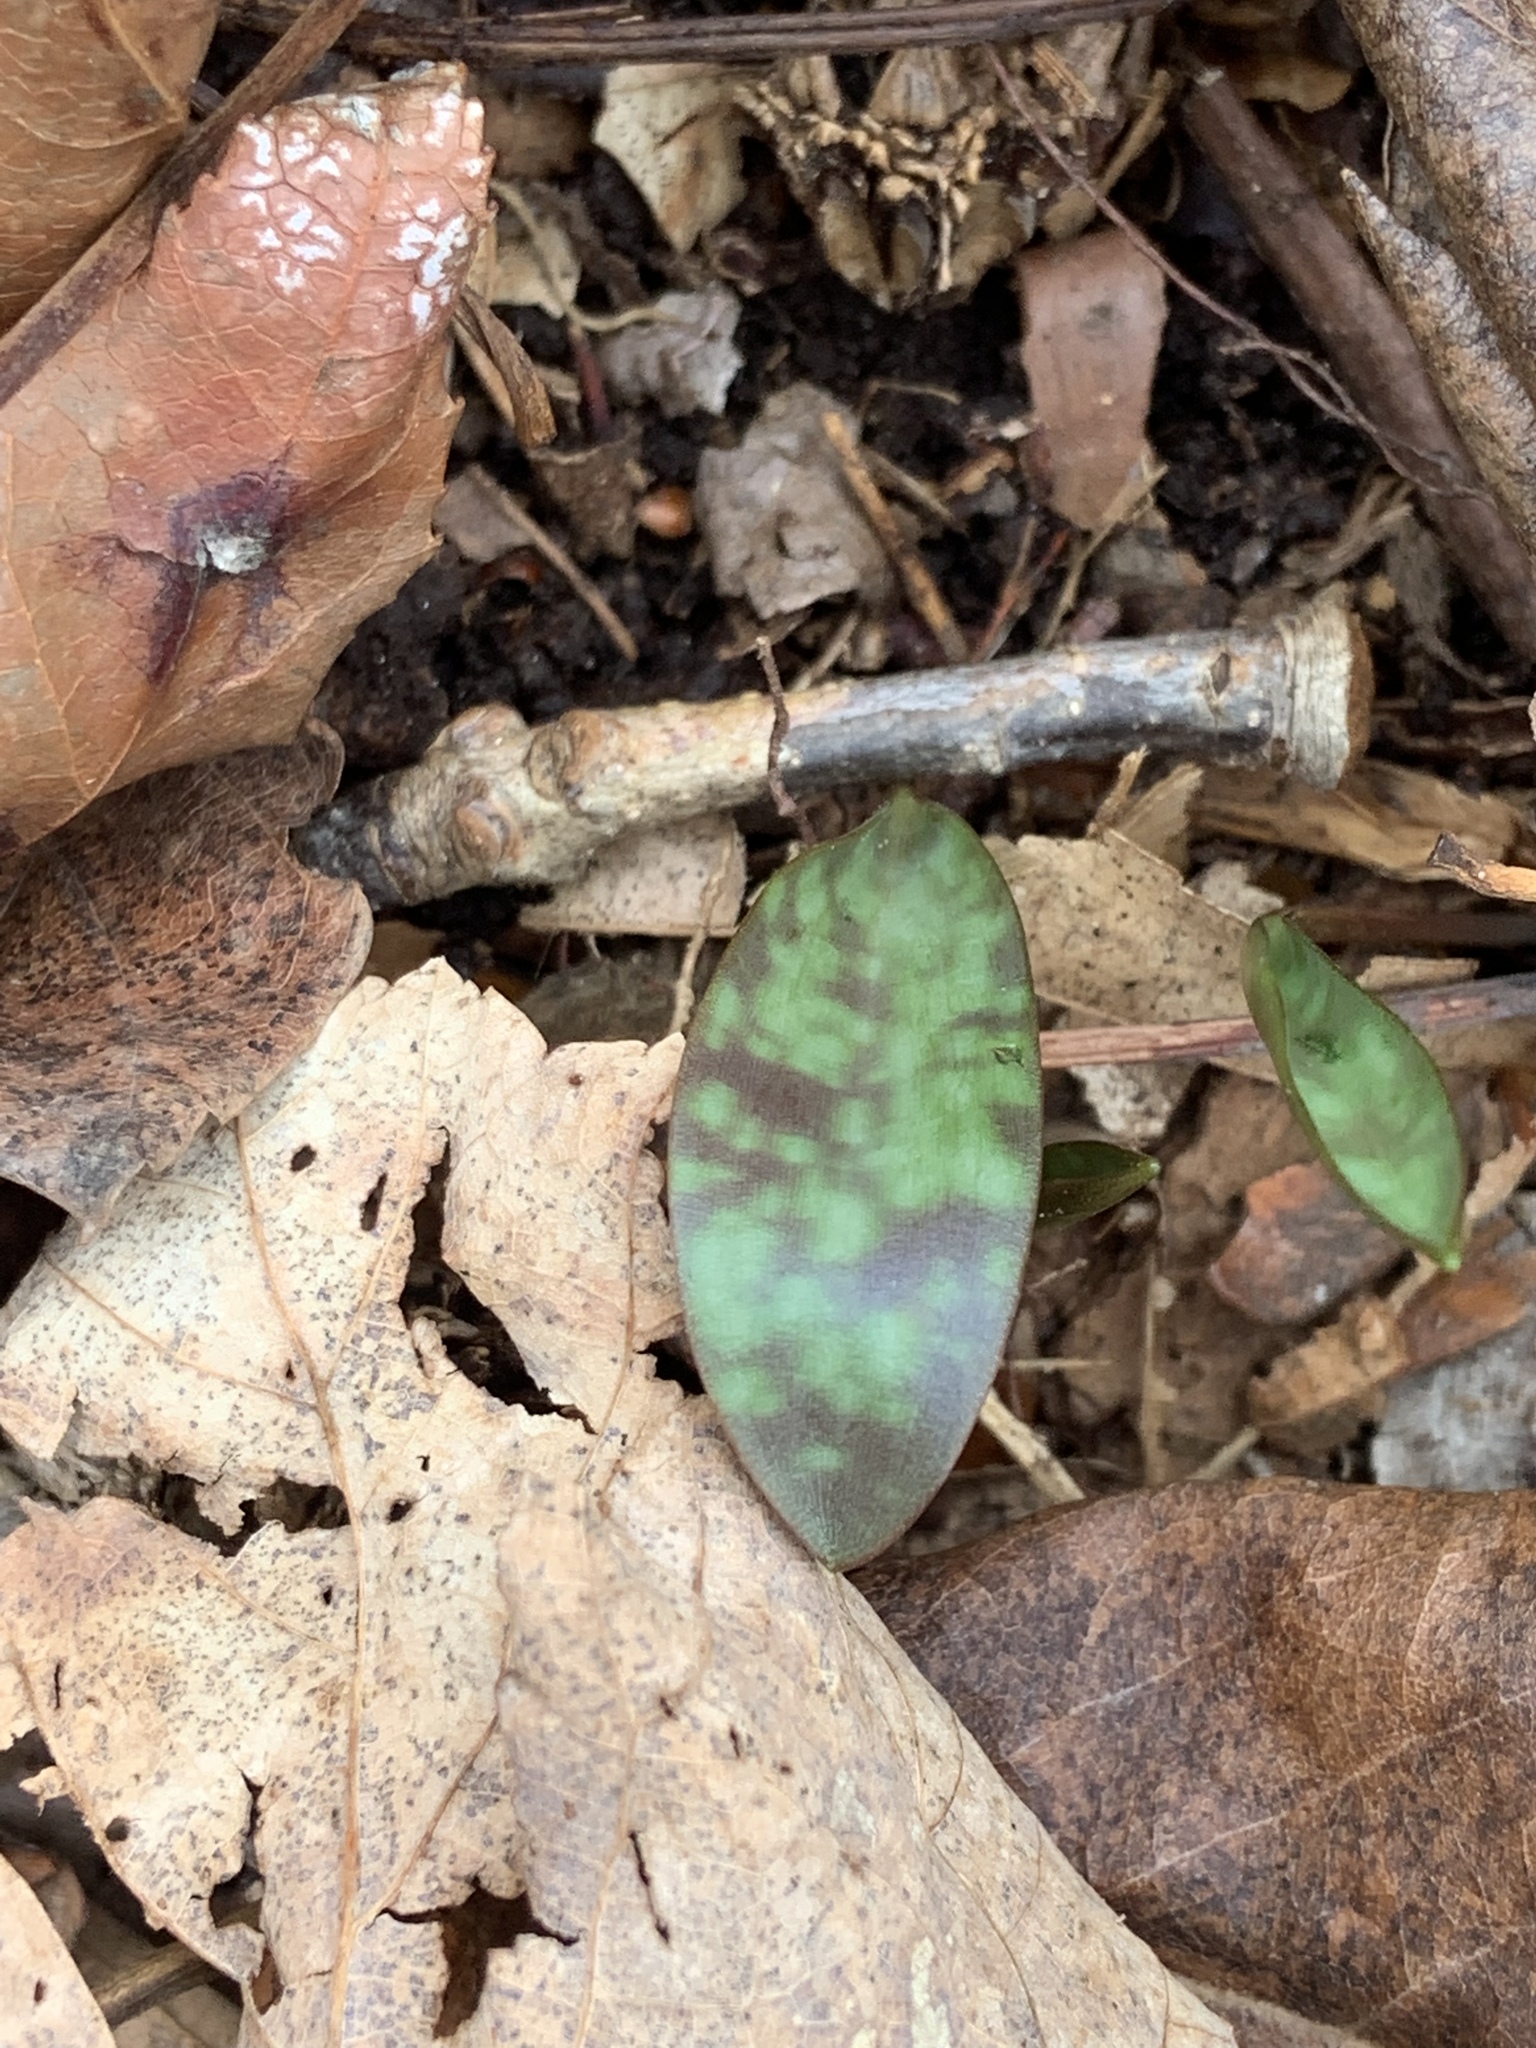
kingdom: Plantae
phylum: Tracheophyta
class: Liliopsida
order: Liliales
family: Liliaceae
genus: Erythronium
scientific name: Erythronium americanum
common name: Yellow adder's-tongue
